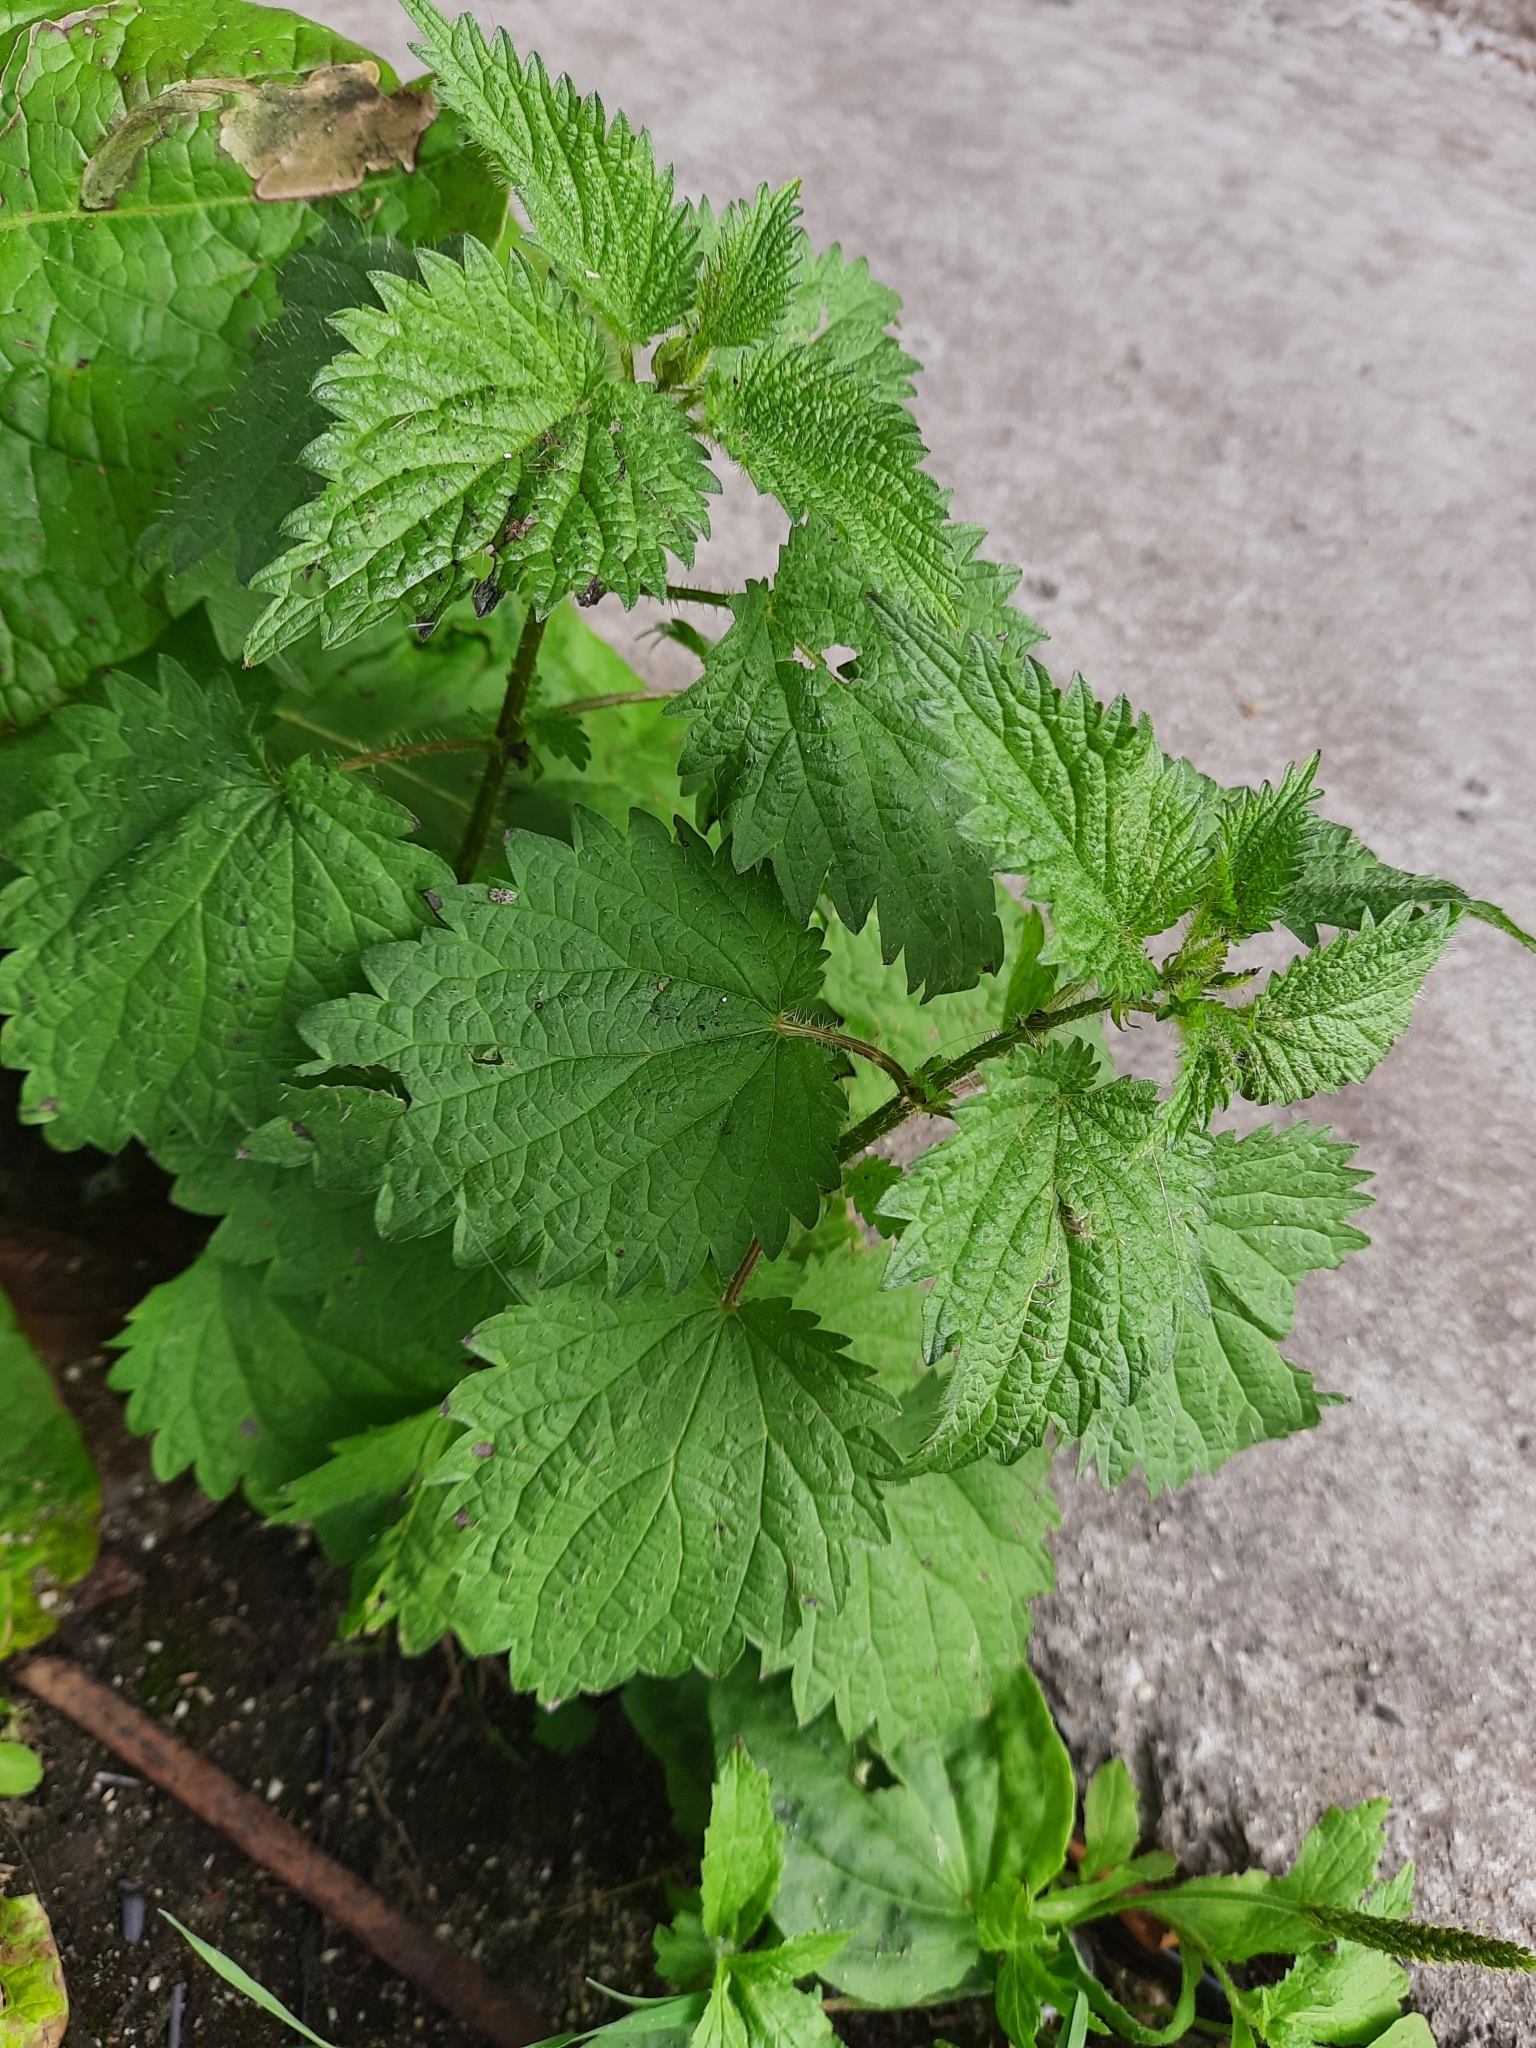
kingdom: Plantae
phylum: Tracheophyta
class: Magnoliopsida
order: Rosales
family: Urticaceae
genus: Urtica
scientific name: Urtica dioica
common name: Common nettle
